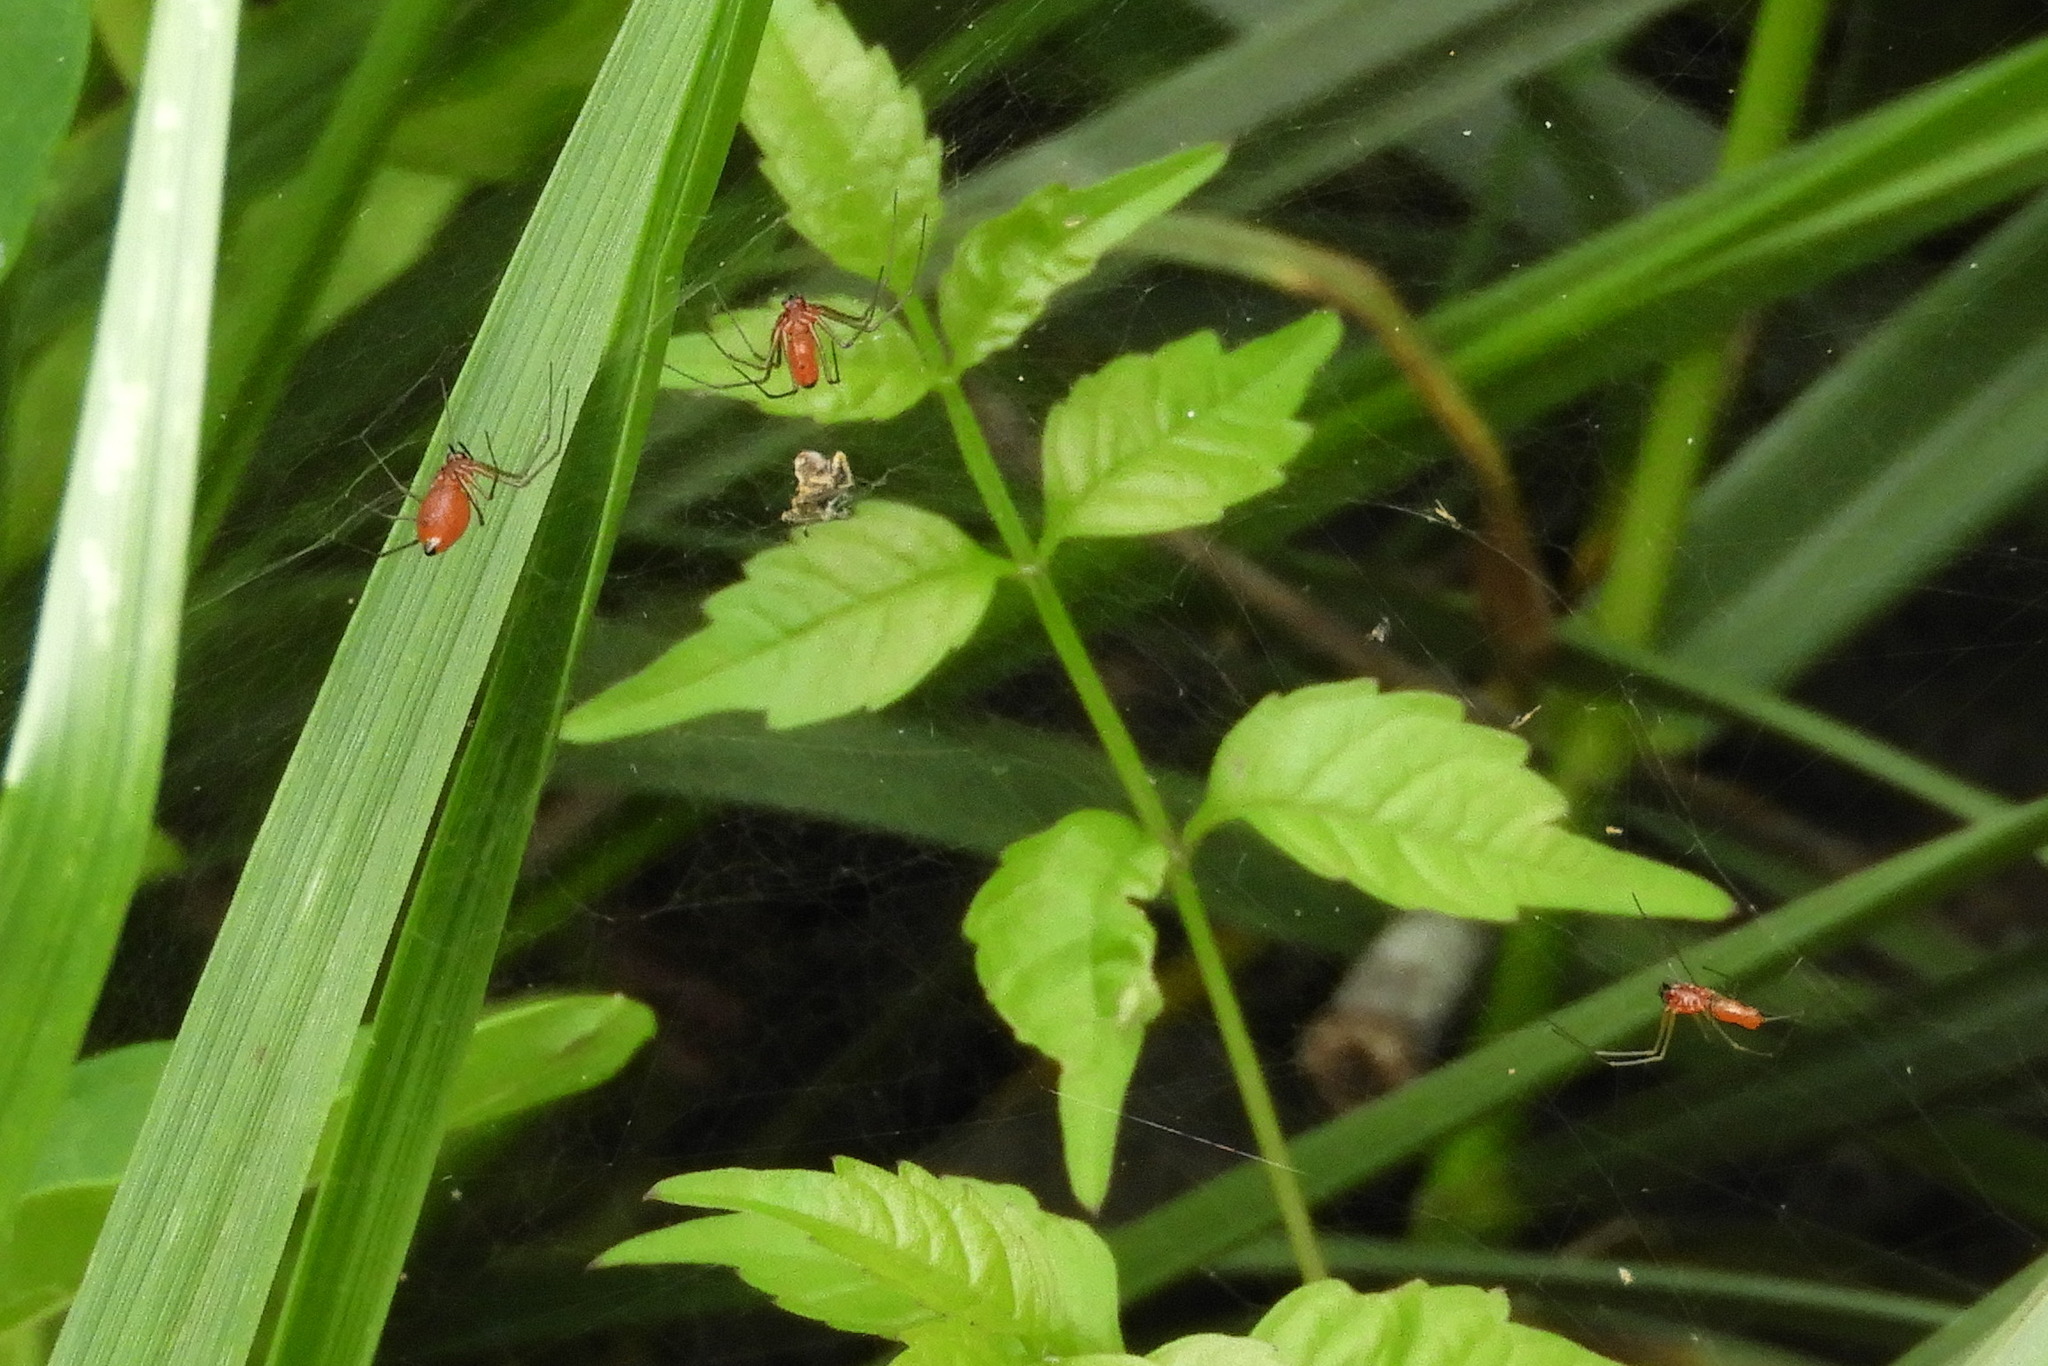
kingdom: Animalia
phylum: Arthropoda
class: Arachnida
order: Araneae
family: Linyphiidae
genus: Florinda
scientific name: Florinda coccinea
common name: Black-tailed red sheetweaver
